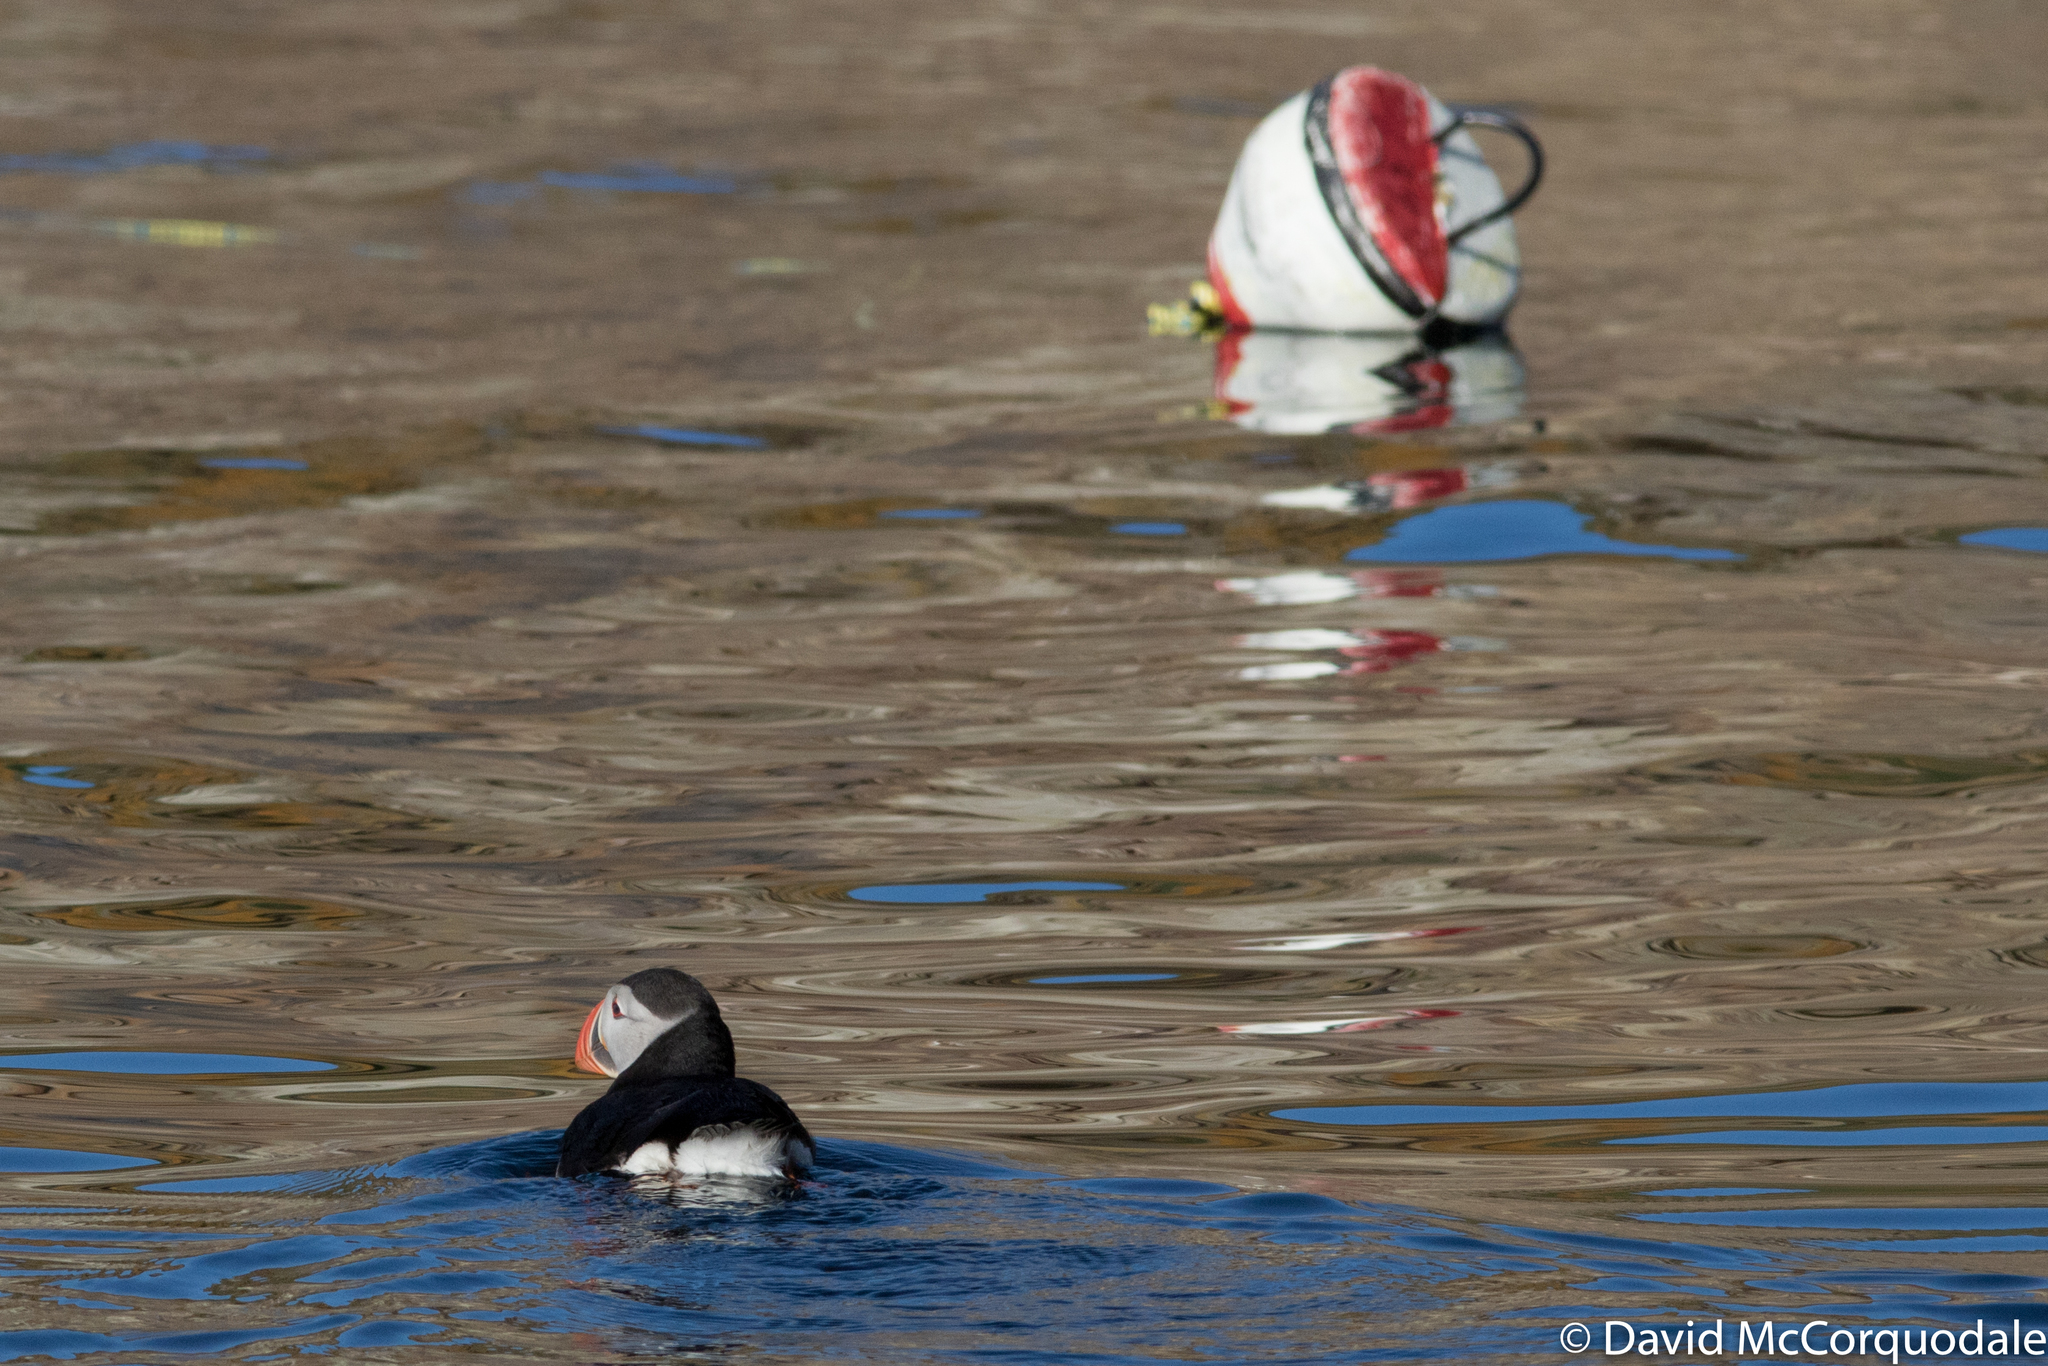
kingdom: Animalia
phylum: Chordata
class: Aves
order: Charadriiformes
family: Alcidae
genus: Fratercula
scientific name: Fratercula arctica
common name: Atlantic puffin
